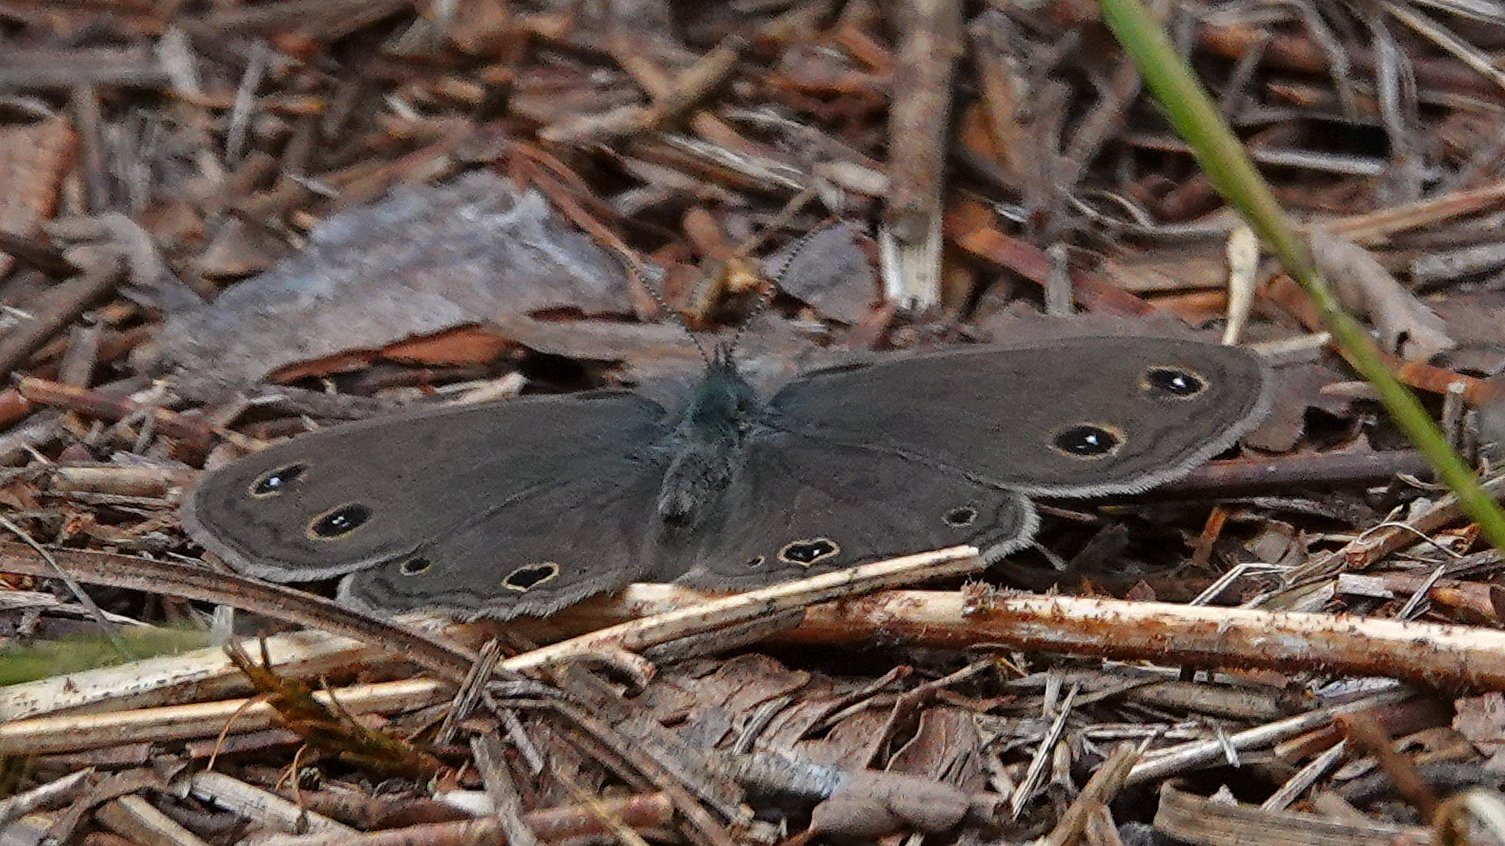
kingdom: Animalia
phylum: Arthropoda
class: Insecta
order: Lepidoptera
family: Nymphalidae
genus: Euptychia
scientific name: Euptychia cymela
